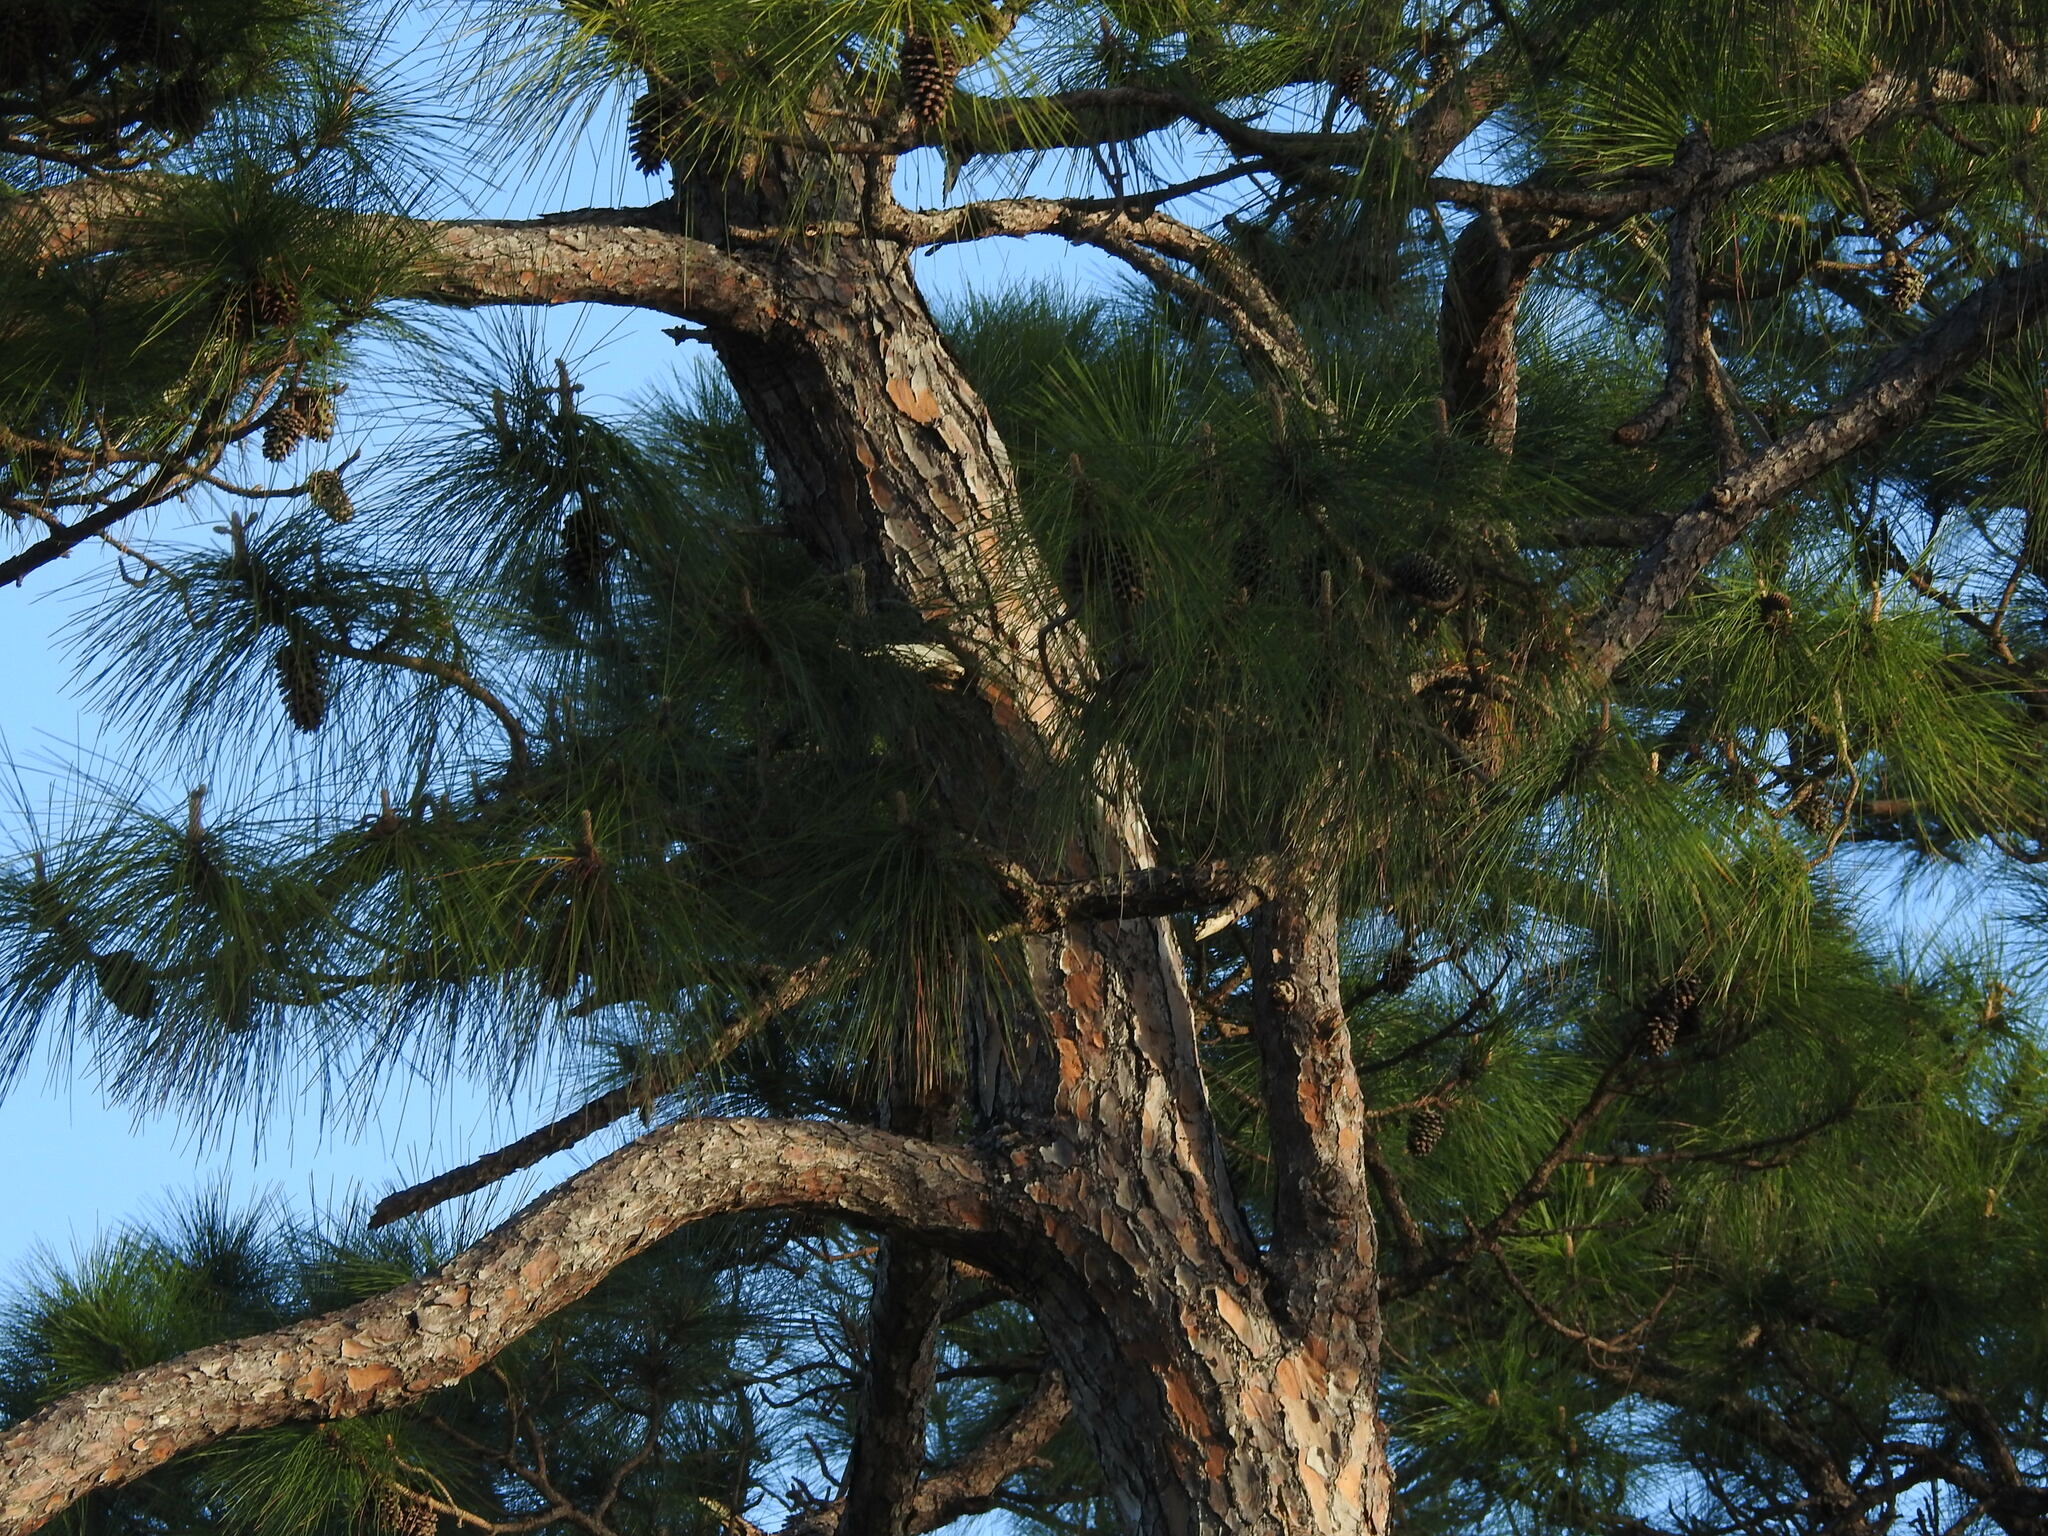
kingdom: Plantae
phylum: Tracheophyta
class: Pinopsida
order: Pinales
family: Pinaceae
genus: Pinus
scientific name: Pinus elliottii
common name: Slash pine
